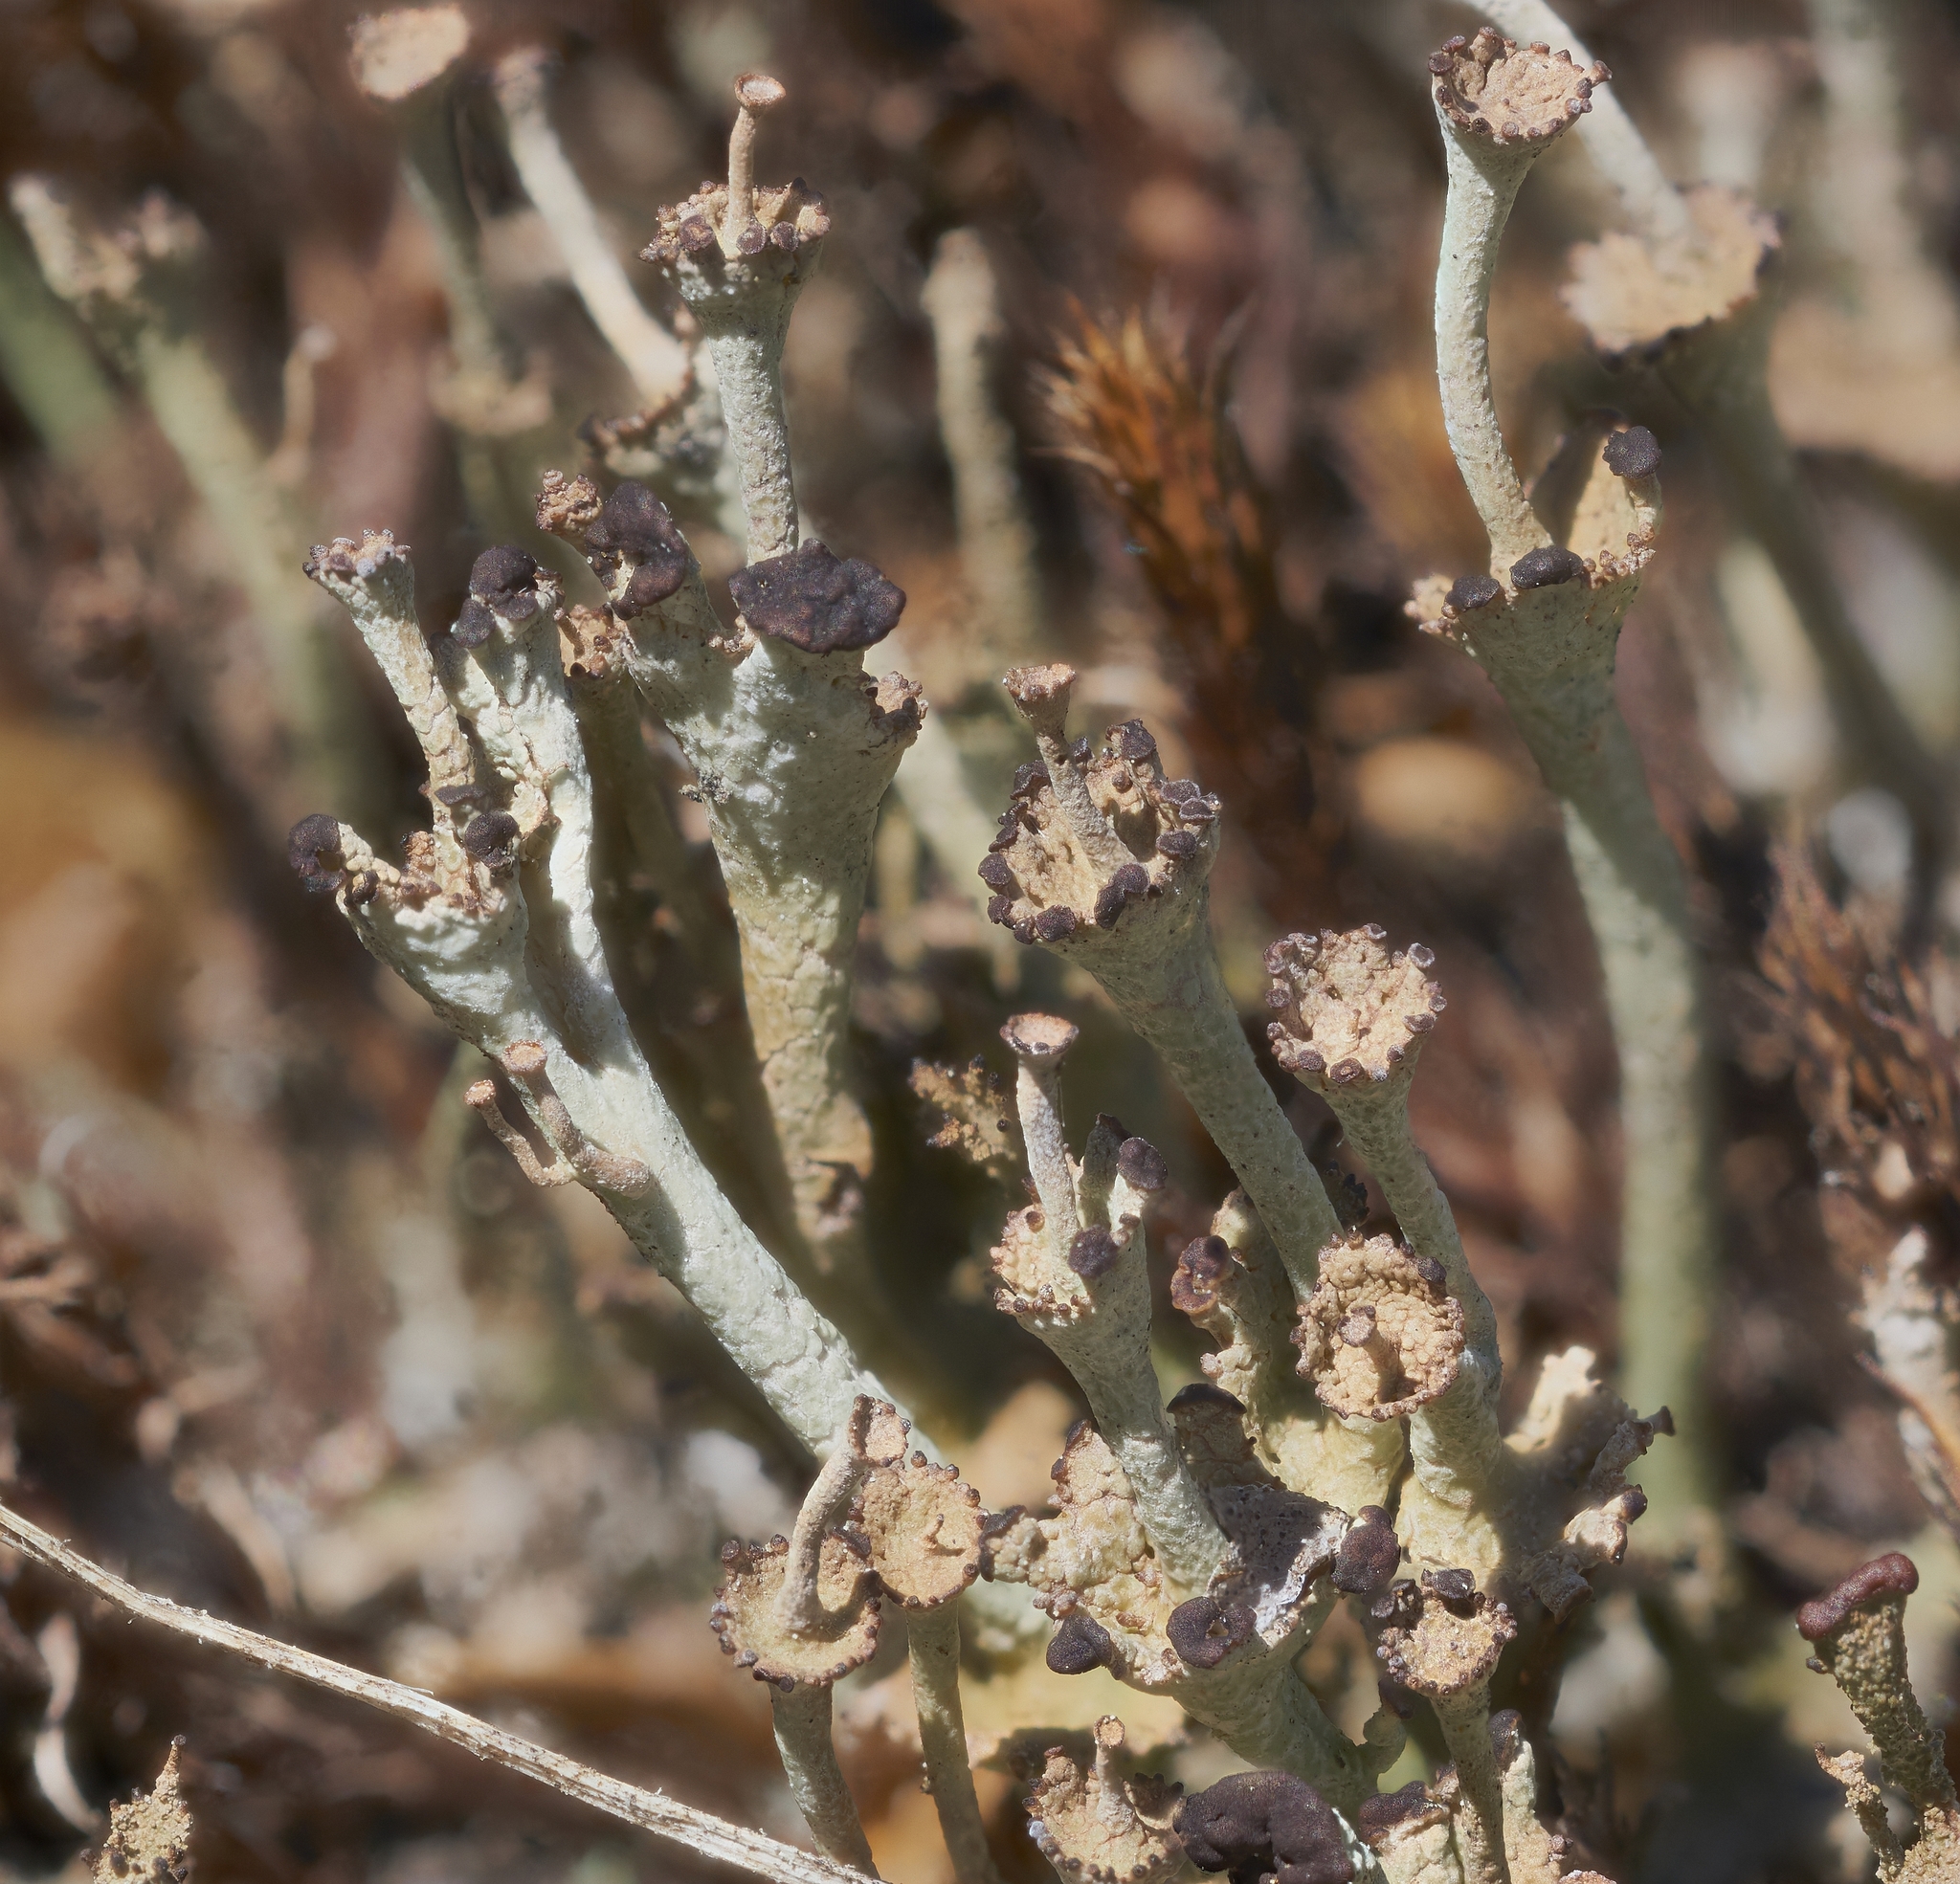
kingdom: Fungi
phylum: Ascomycota
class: Lecanoromycetes
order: Lecanorales
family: Cladoniaceae
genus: Cladonia
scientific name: Cladonia cervicornis
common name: Browned pixie-cup lichen
